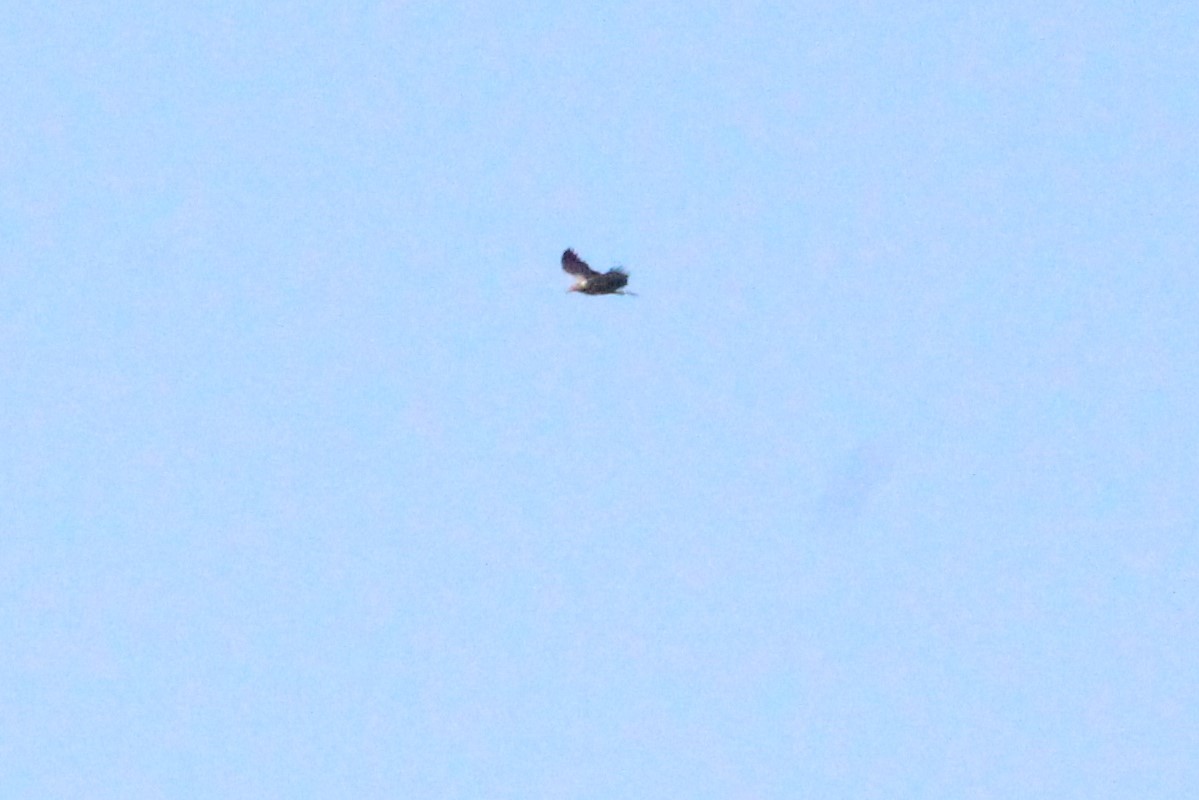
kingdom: Animalia
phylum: Chordata
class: Aves
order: Accipitriformes
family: Accipitridae
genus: Haliaeetus
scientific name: Haliaeetus leucogaster
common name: White-bellied sea eagle
